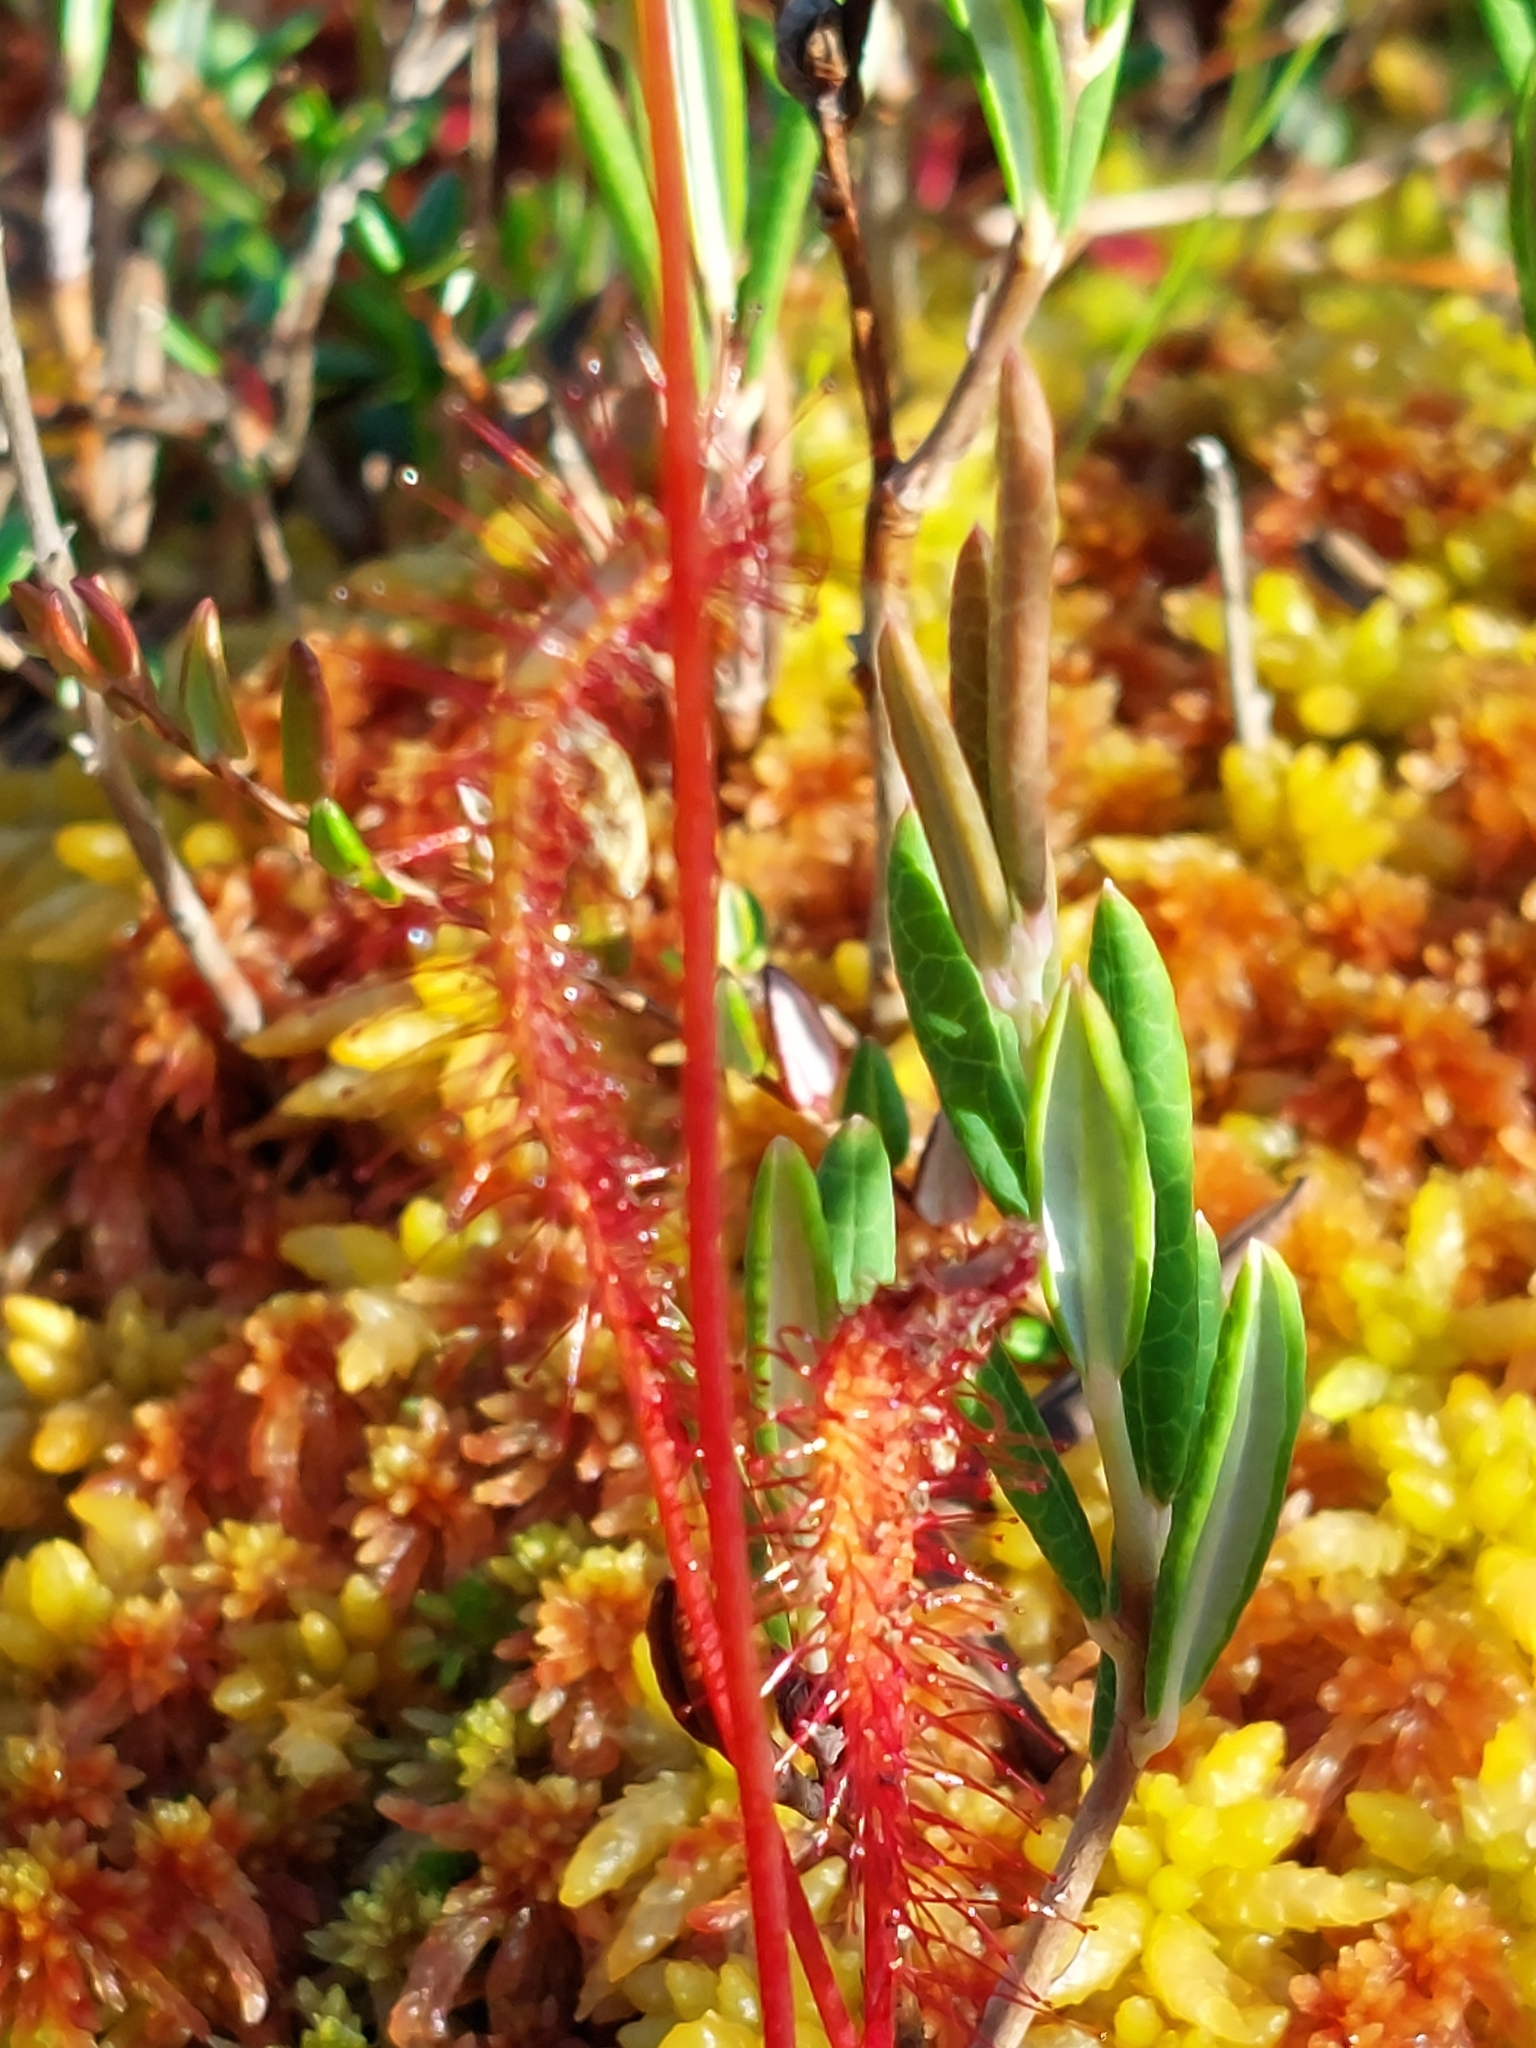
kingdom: Plantae
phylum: Tracheophyta
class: Magnoliopsida
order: Caryophyllales
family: Droseraceae
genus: Drosera
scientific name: Drosera anglica
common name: Great sundew
